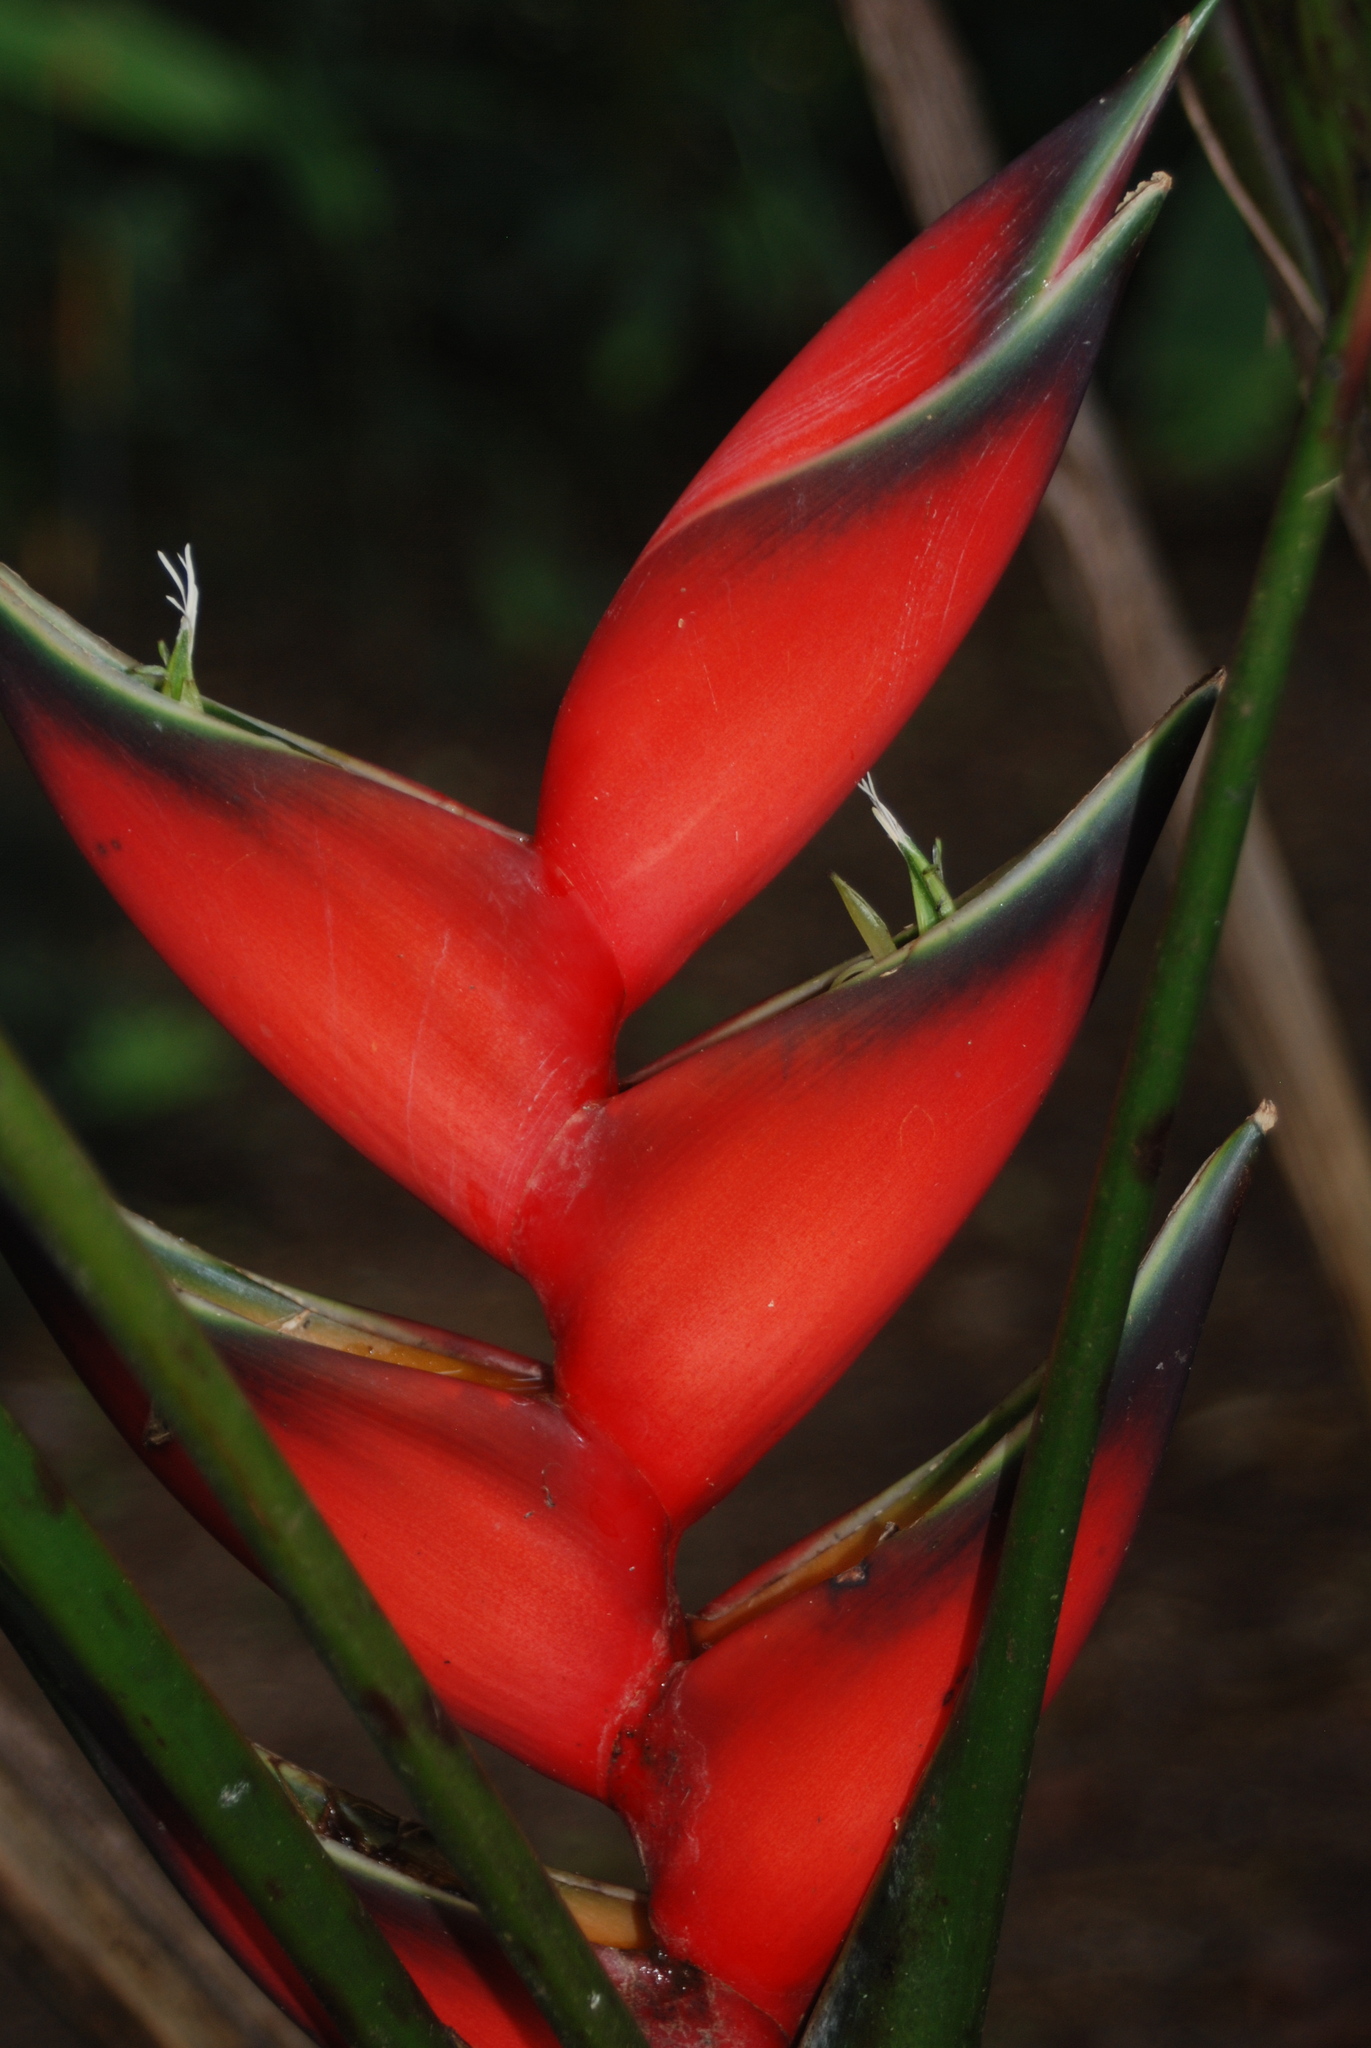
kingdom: Plantae
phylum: Tracheophyta
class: Liliopsida
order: Zingiberales
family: Heliconiaceae
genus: Heliconia
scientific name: Heliconia bihai
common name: Macaw flower
